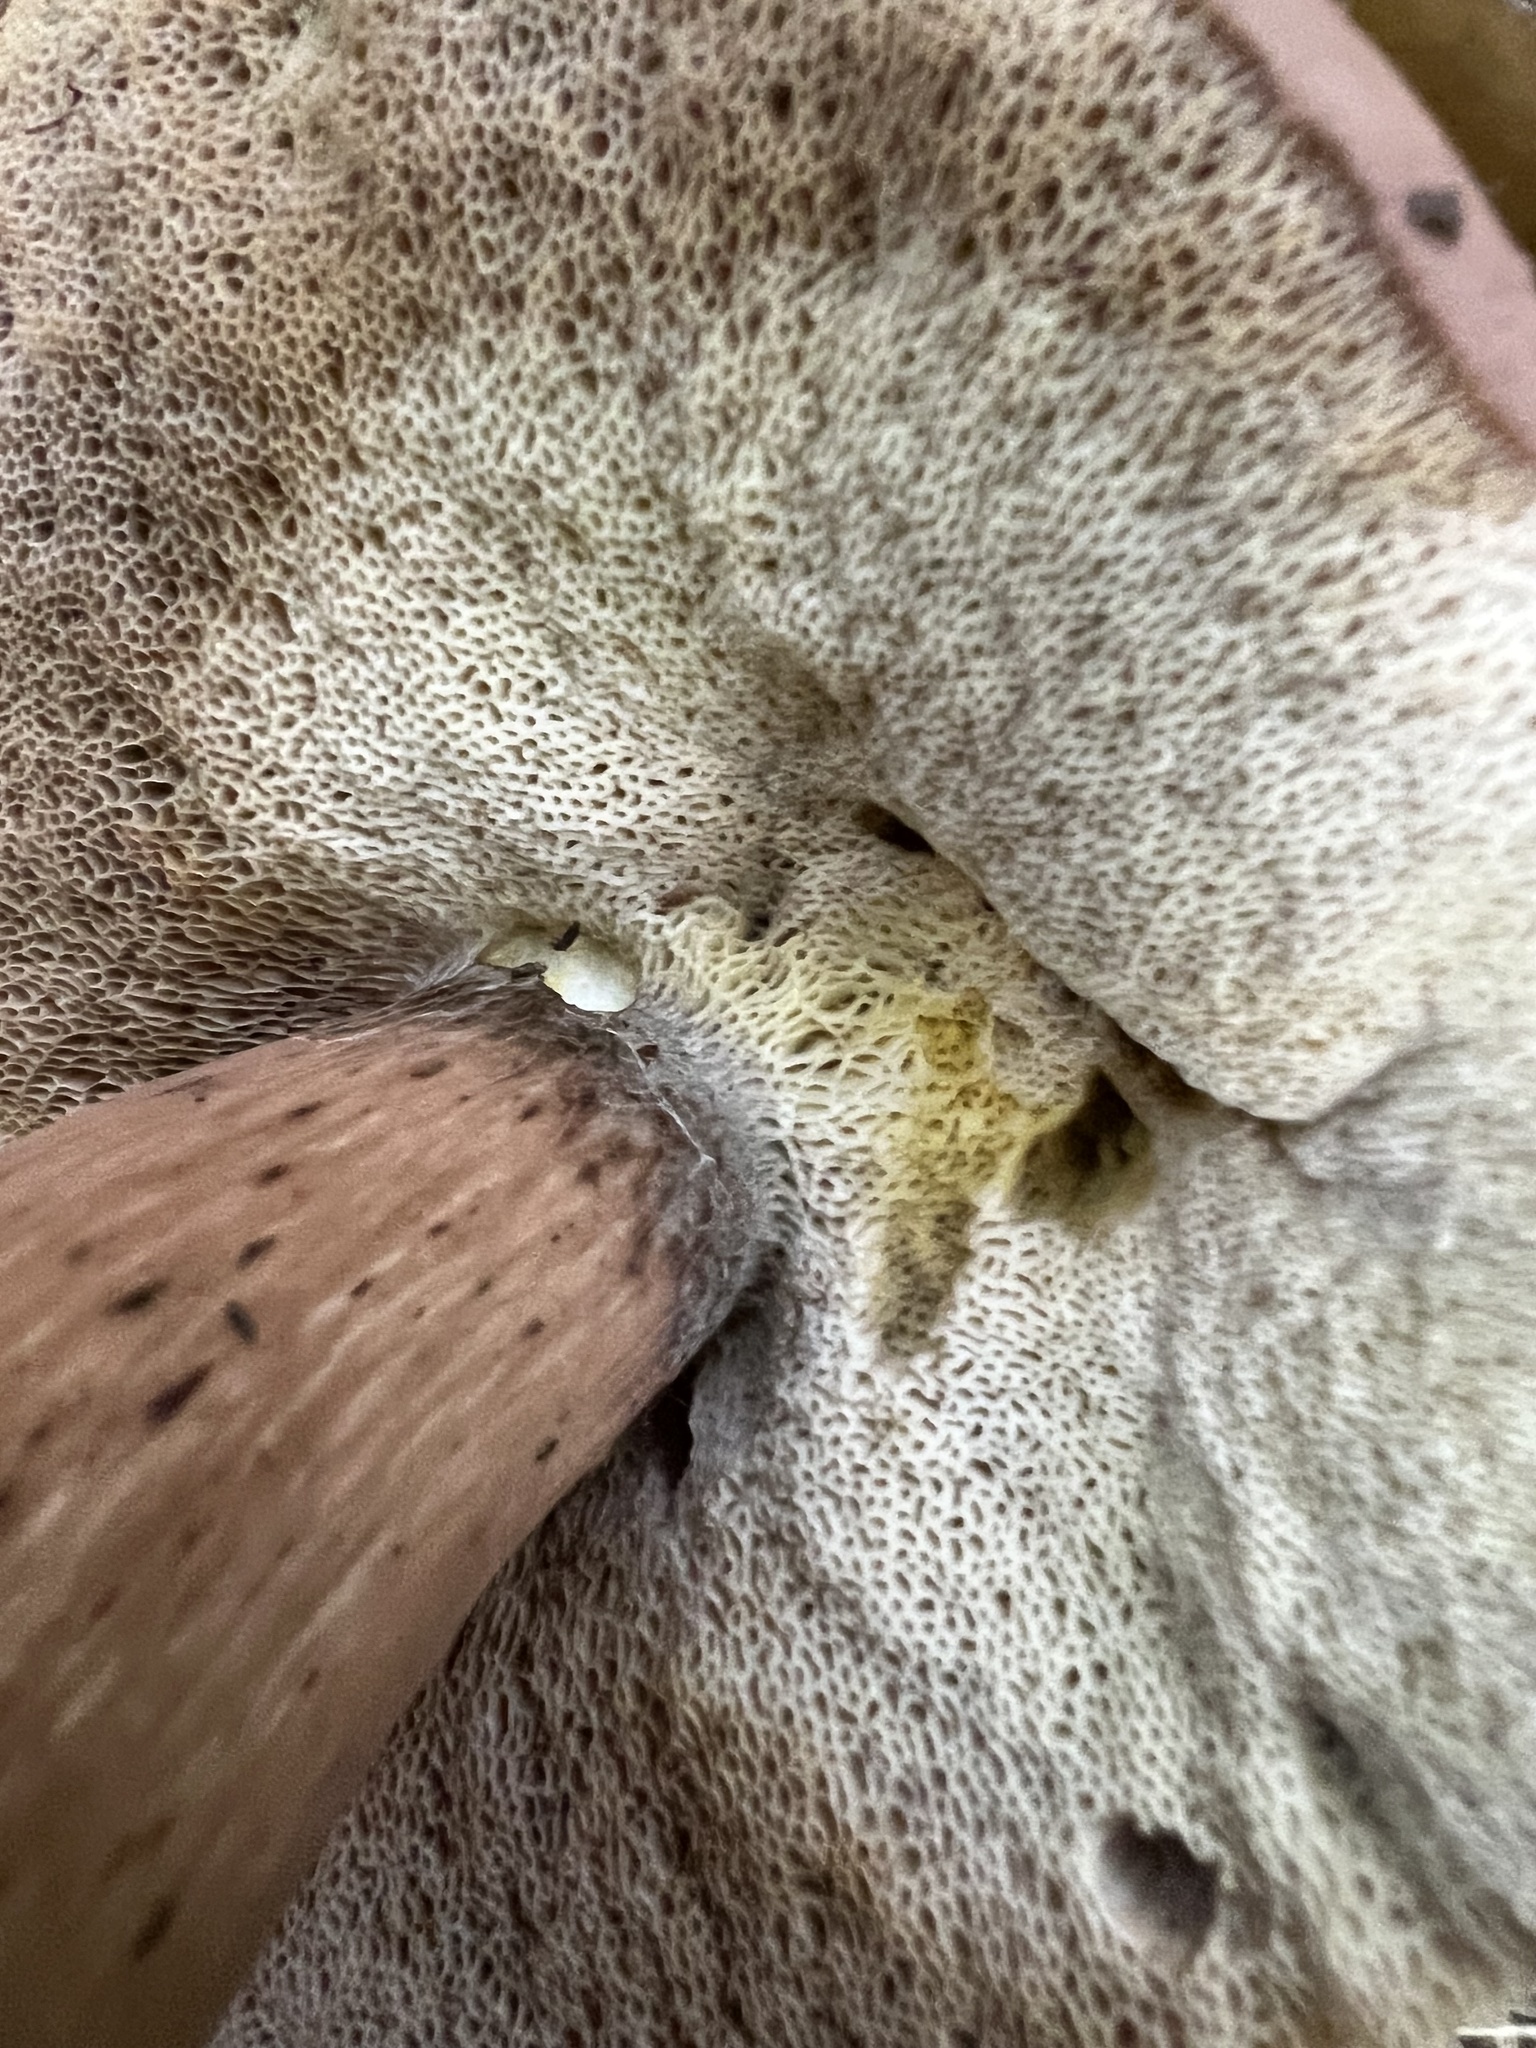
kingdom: Fungi
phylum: Basidiomycota
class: Agaricomycetes
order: Boletales
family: Boletaceae
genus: Tylopilus
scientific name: Tylopilus rubrobrunneus
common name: Reddish brown bitter bolete
